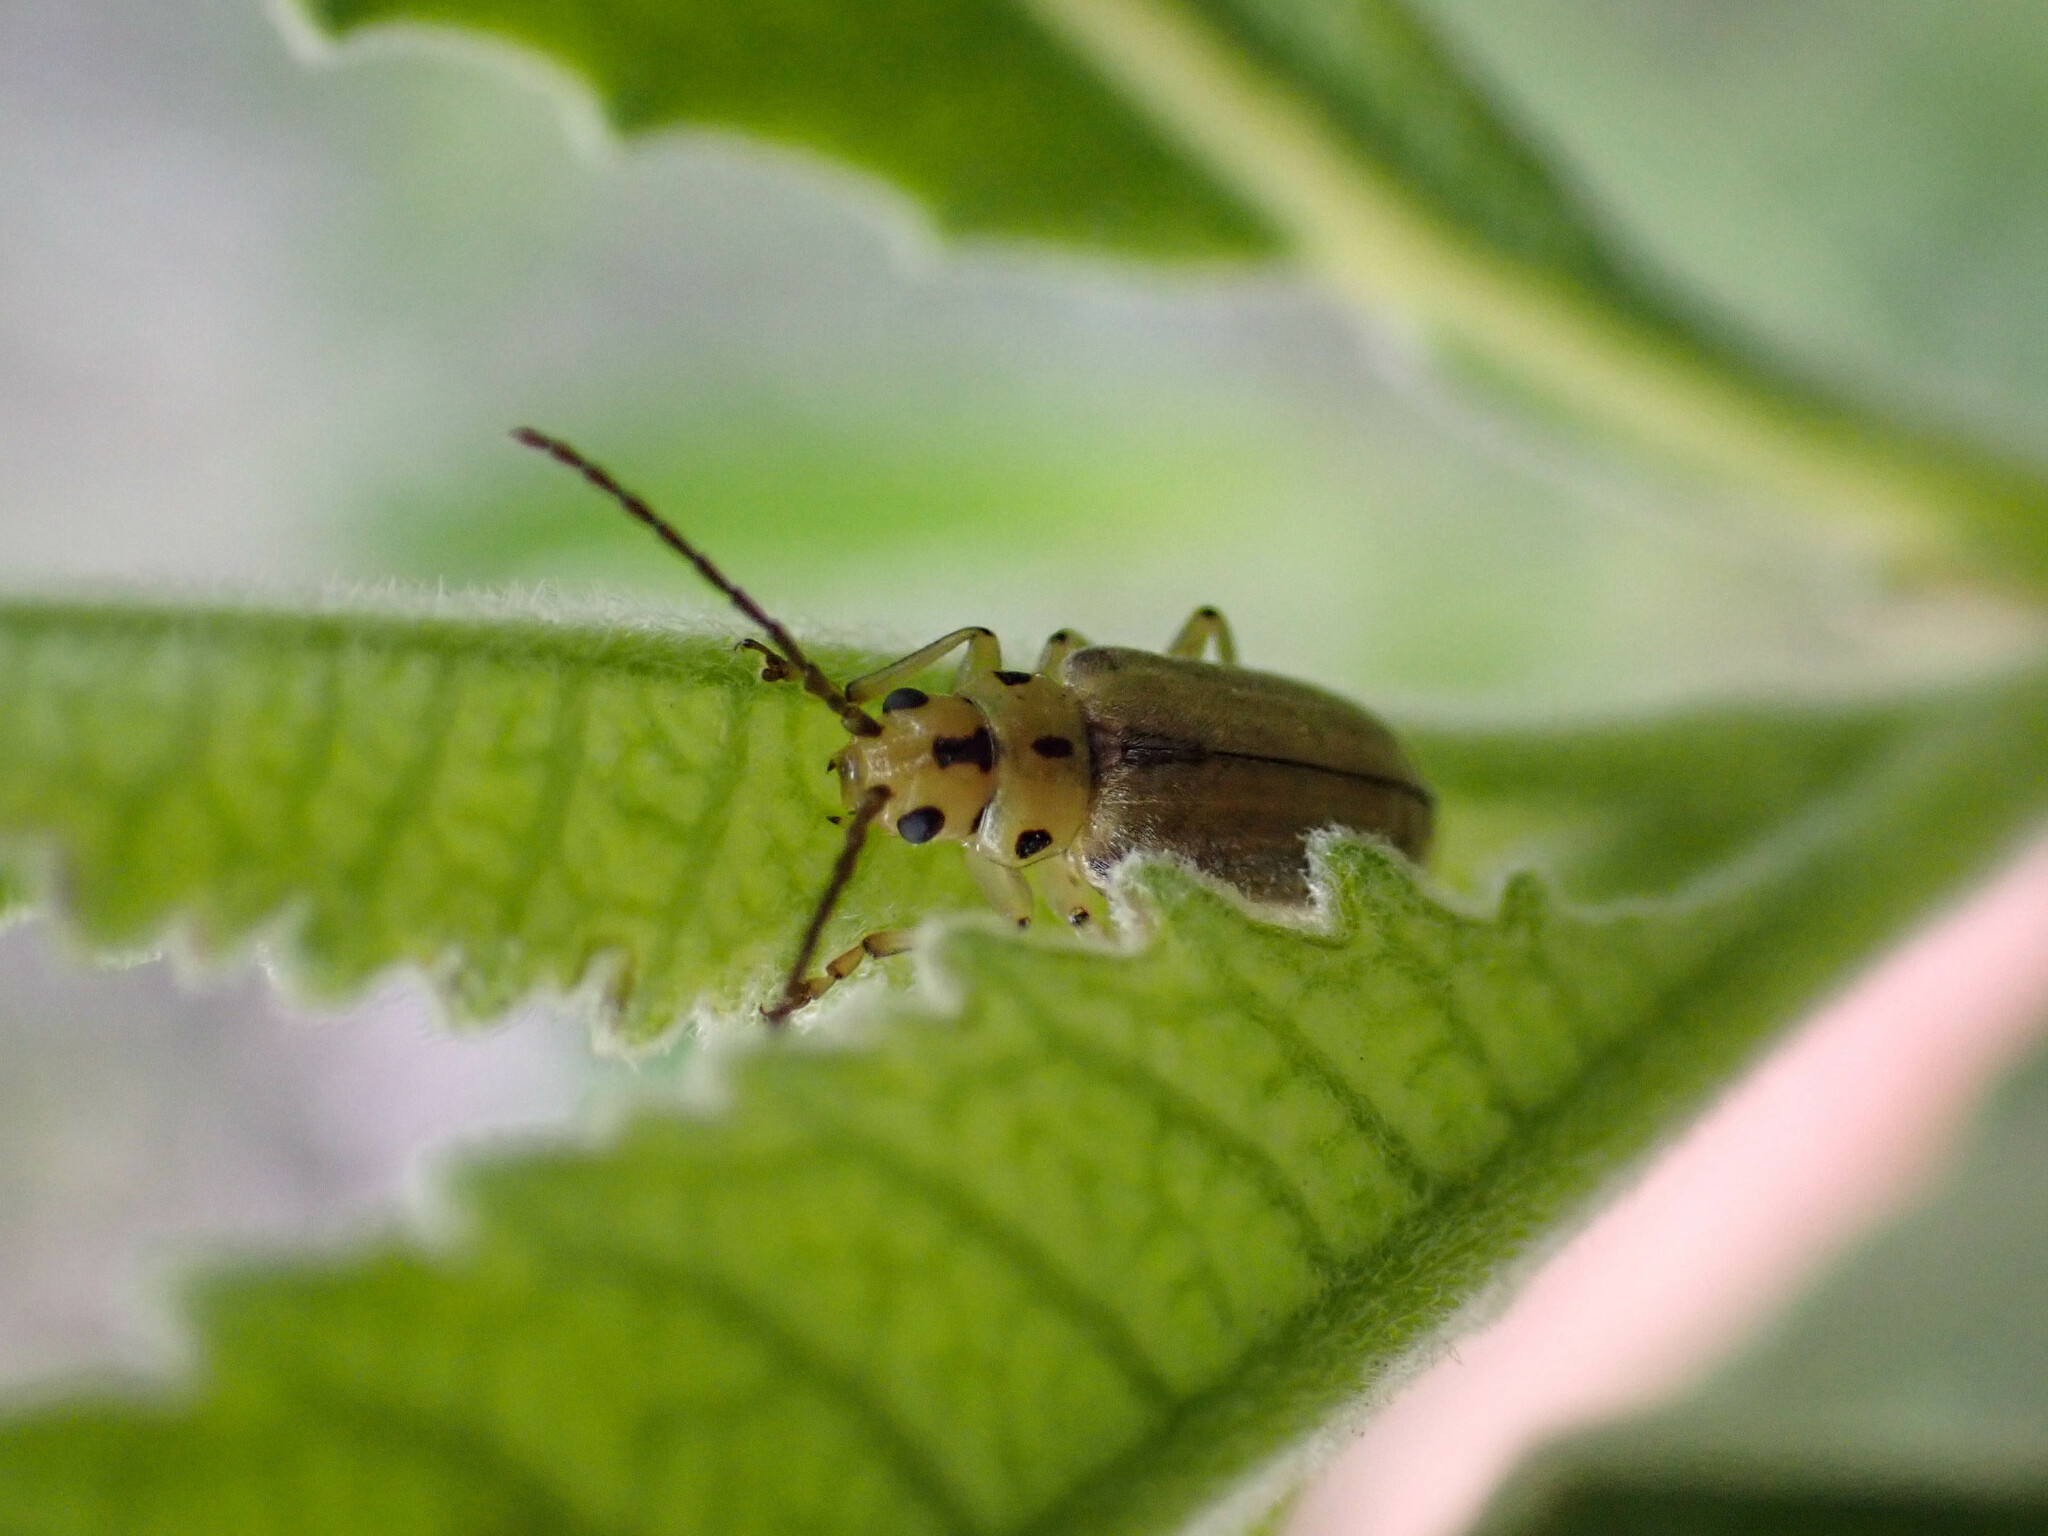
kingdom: Animalia
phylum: Arthropoda
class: Insecta
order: Coleoptera
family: Chrysomelidae
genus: Trirhabda
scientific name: Trirhabda eriodictyonis
